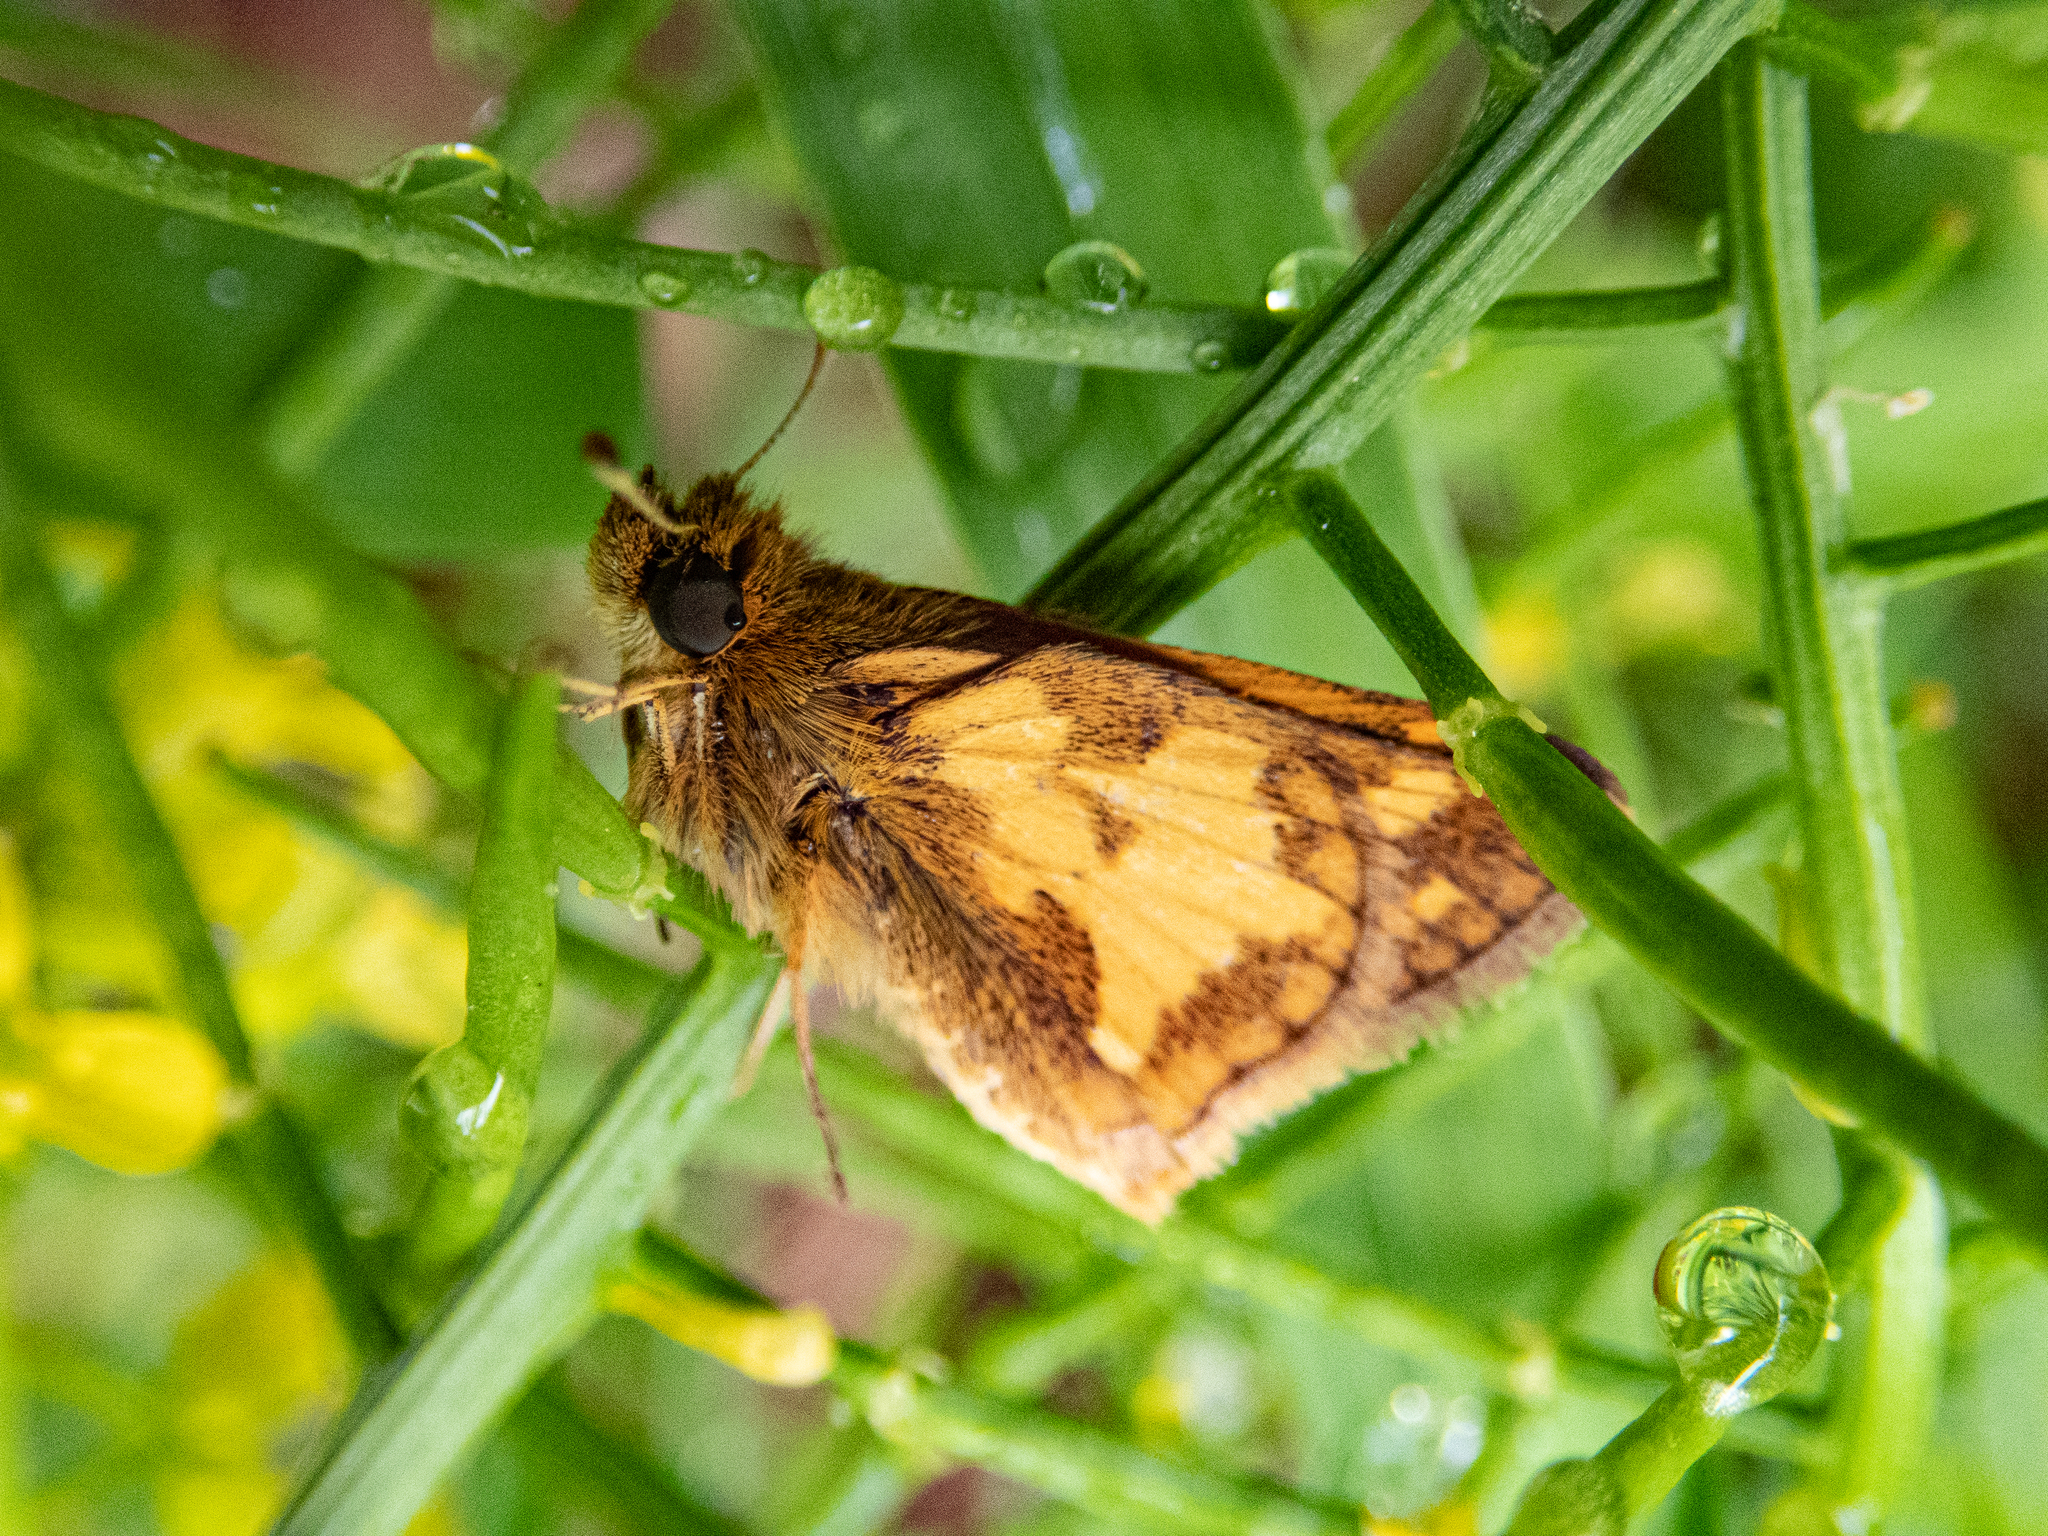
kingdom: Animalia
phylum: Arthropoda
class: Insecta
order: Lepidoptera
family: Hesperiidae
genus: Polites
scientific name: Polites coras
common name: Peck's skipper
